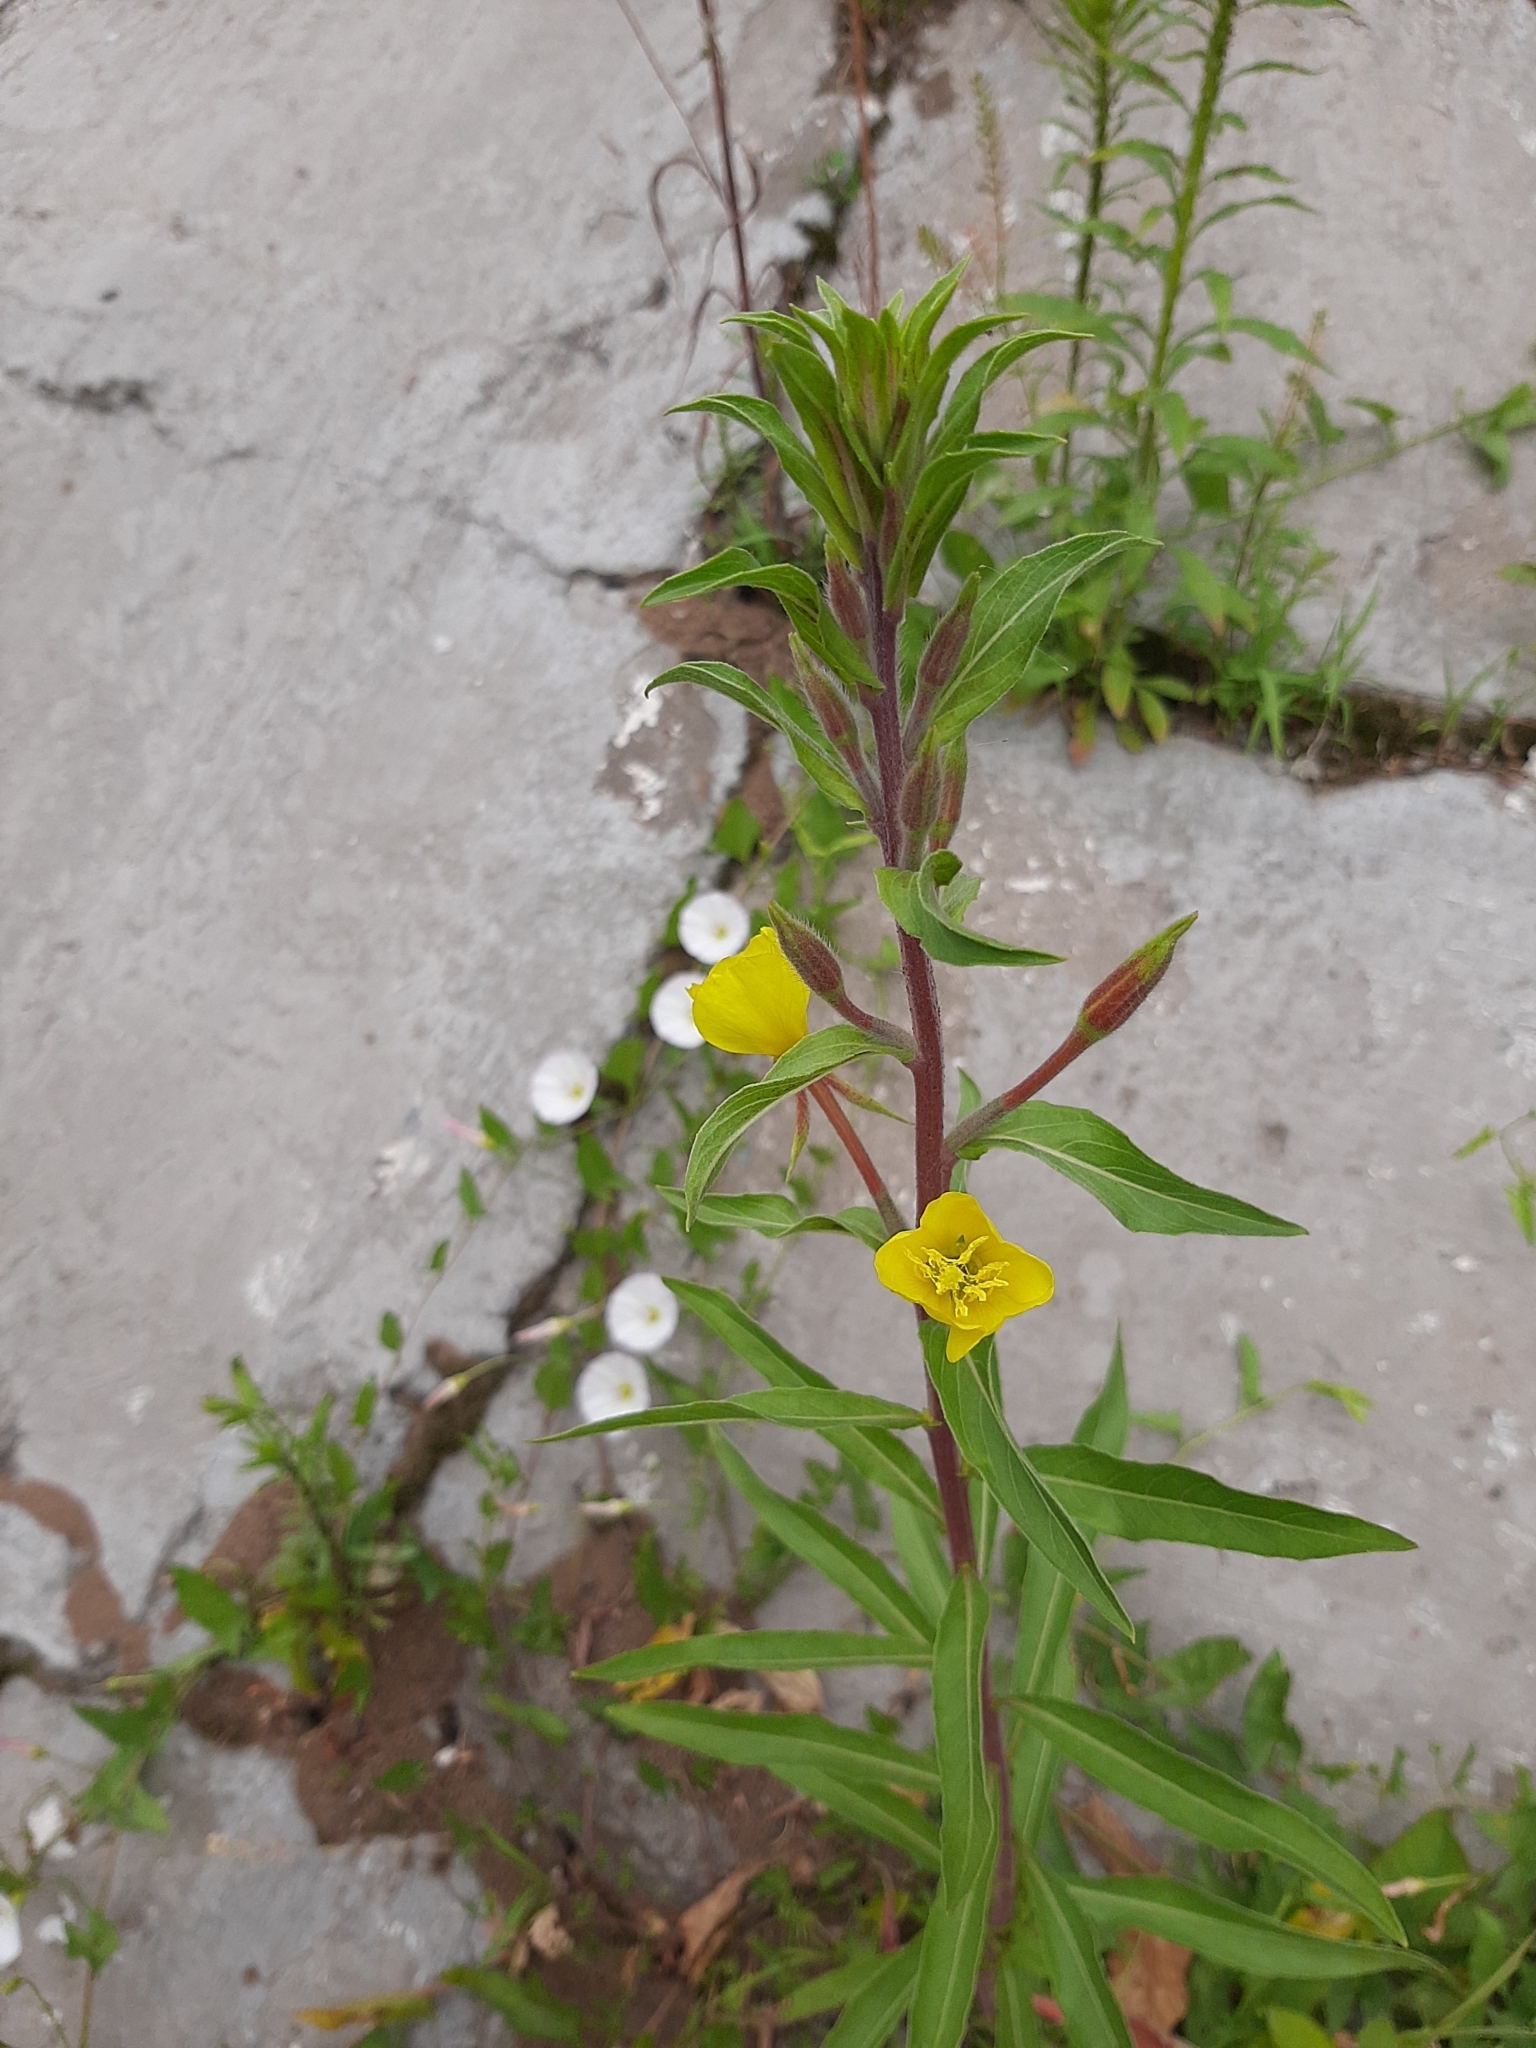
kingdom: Plantae
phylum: Tracheophyta
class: Magnoliopsida
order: Myrtales
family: Onagraceae
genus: Oenothera
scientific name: Oenothera coloratissima
